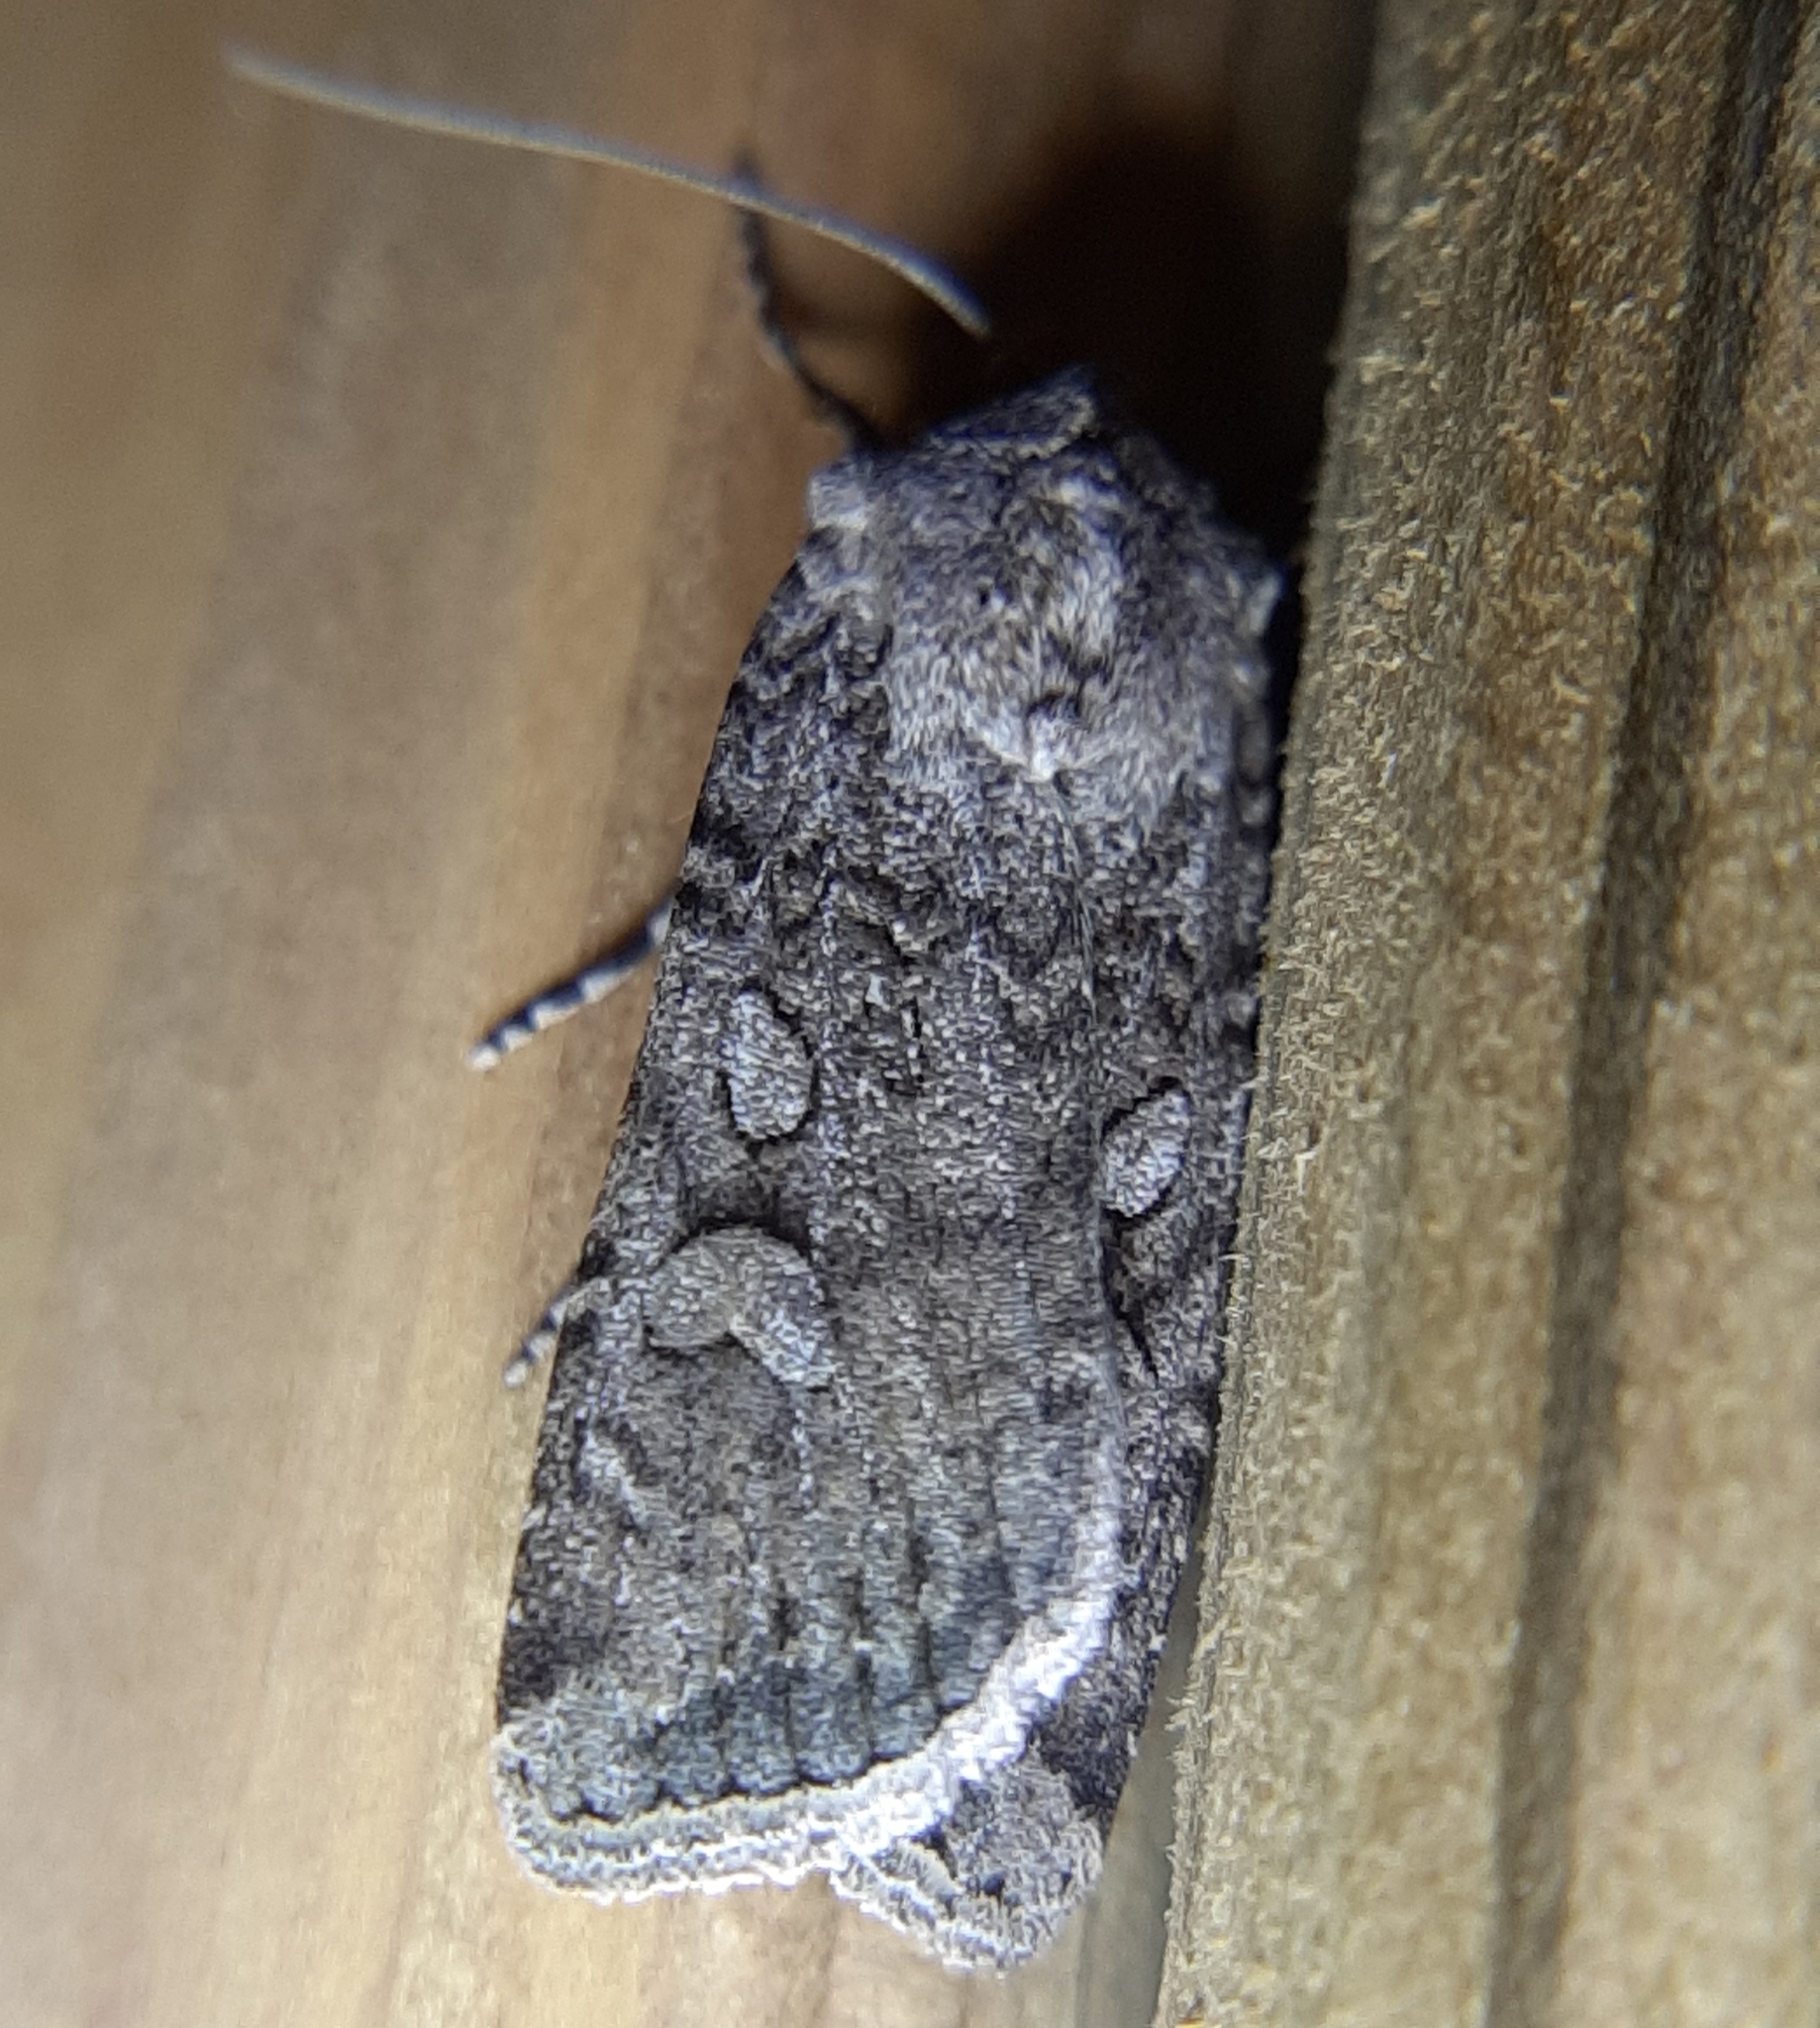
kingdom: Animalia
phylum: Arthropoda
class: Insecta
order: Lepidoptera
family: Noctuidae
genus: Euxoa
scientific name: Euxoa messoria
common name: Darksided cutworm
